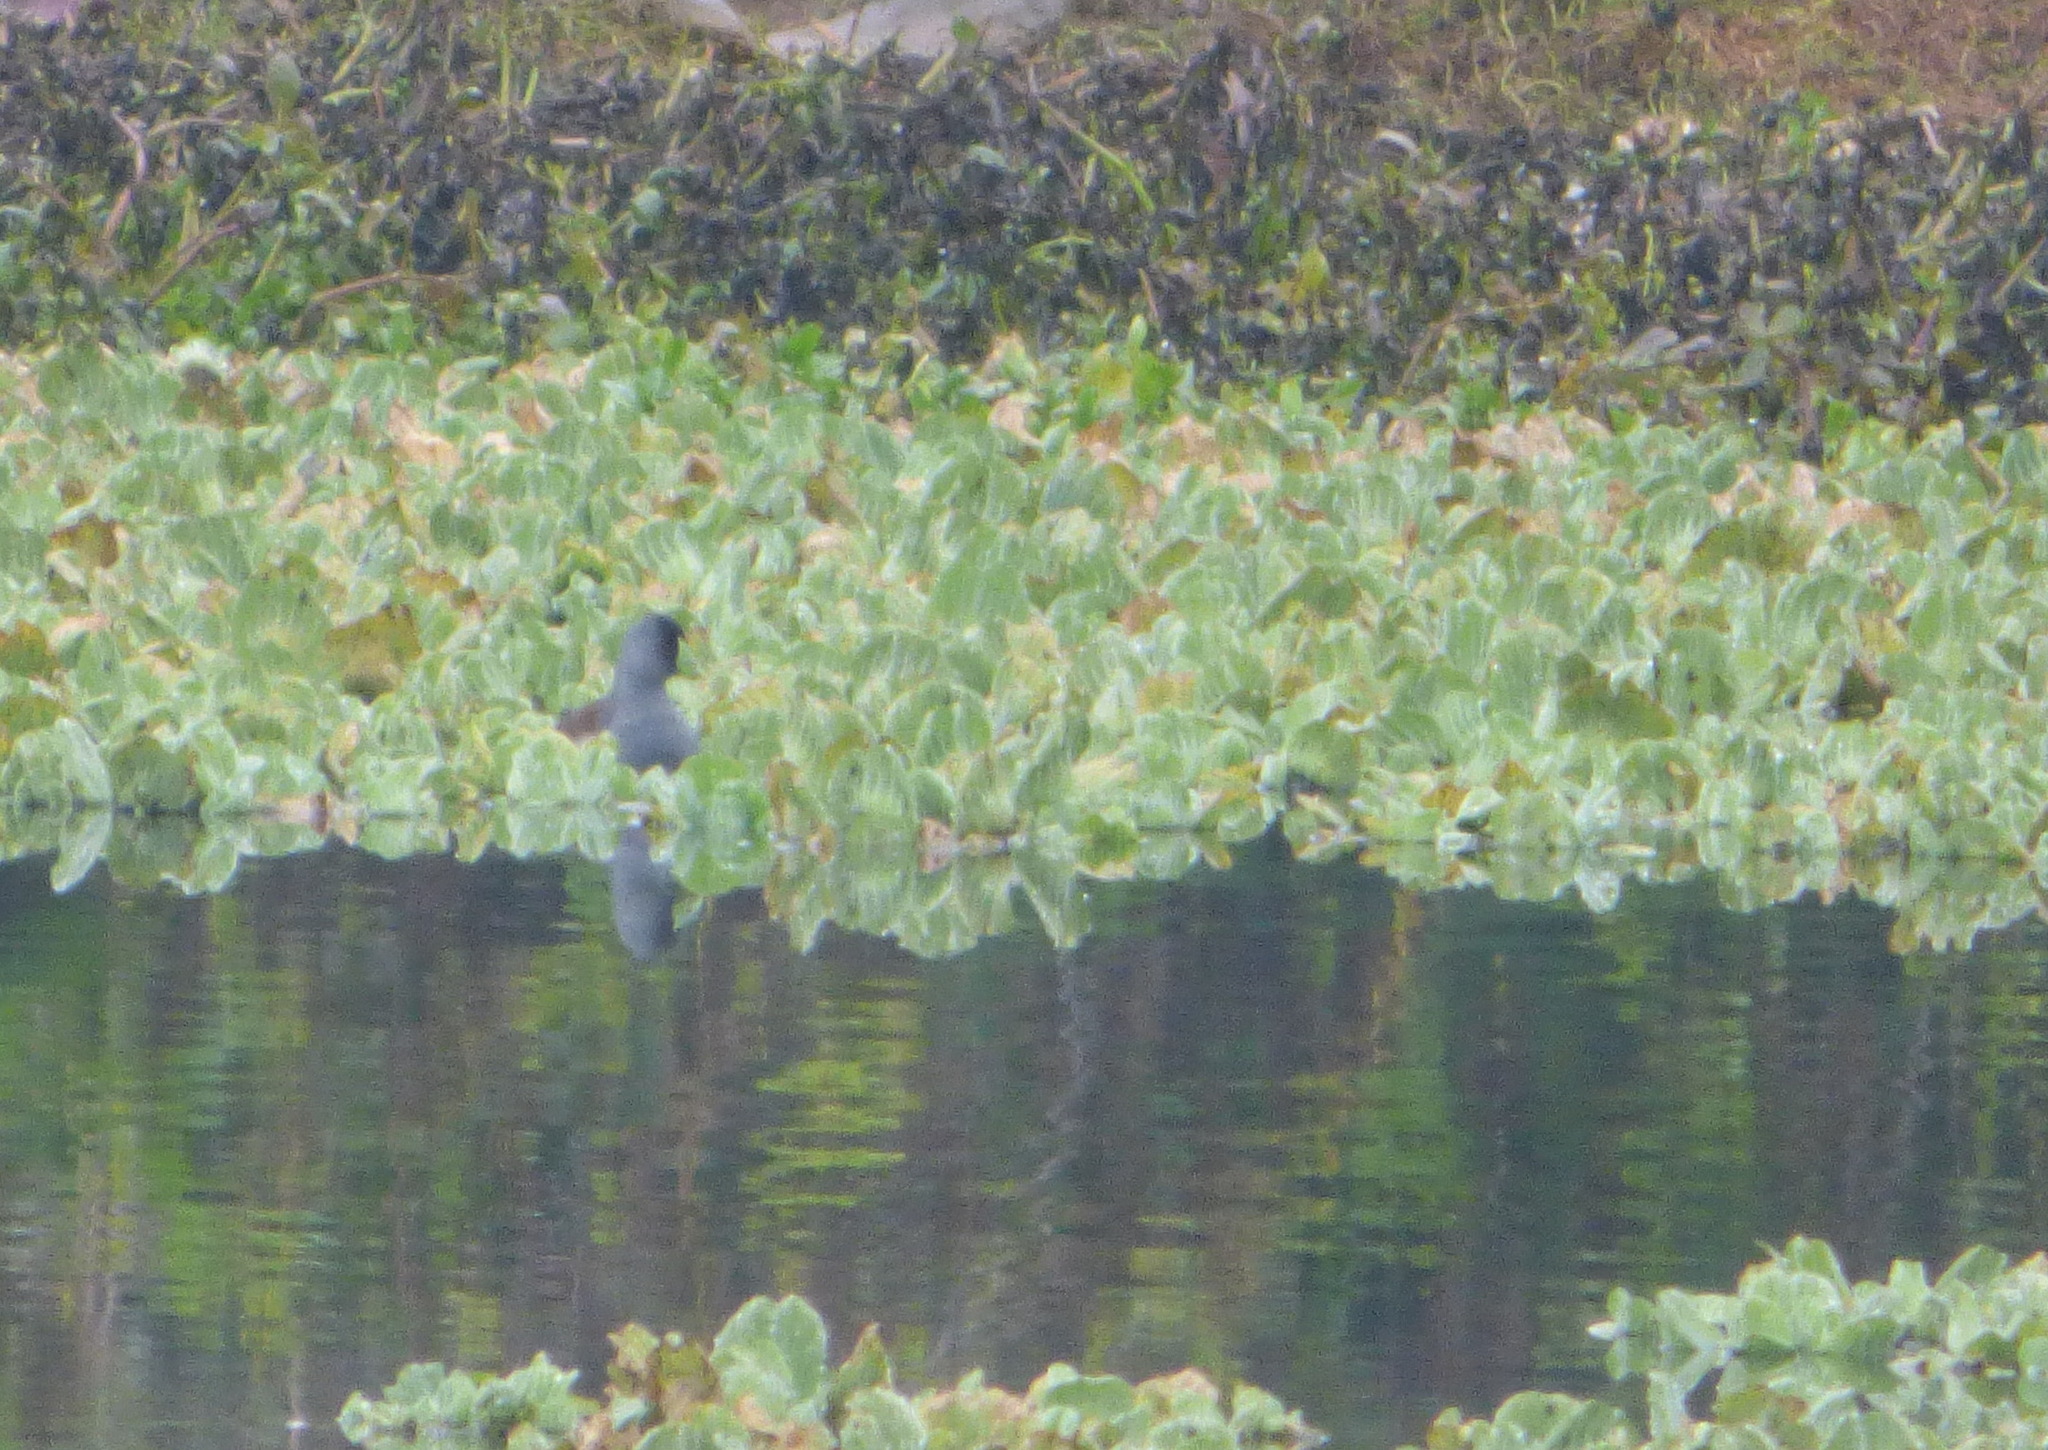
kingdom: Animalia
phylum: Chordata
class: Aves
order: Gruiformes
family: Rallidae
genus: Gallinula
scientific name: Gallinula melanops
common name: Spot-flanked gallinule
